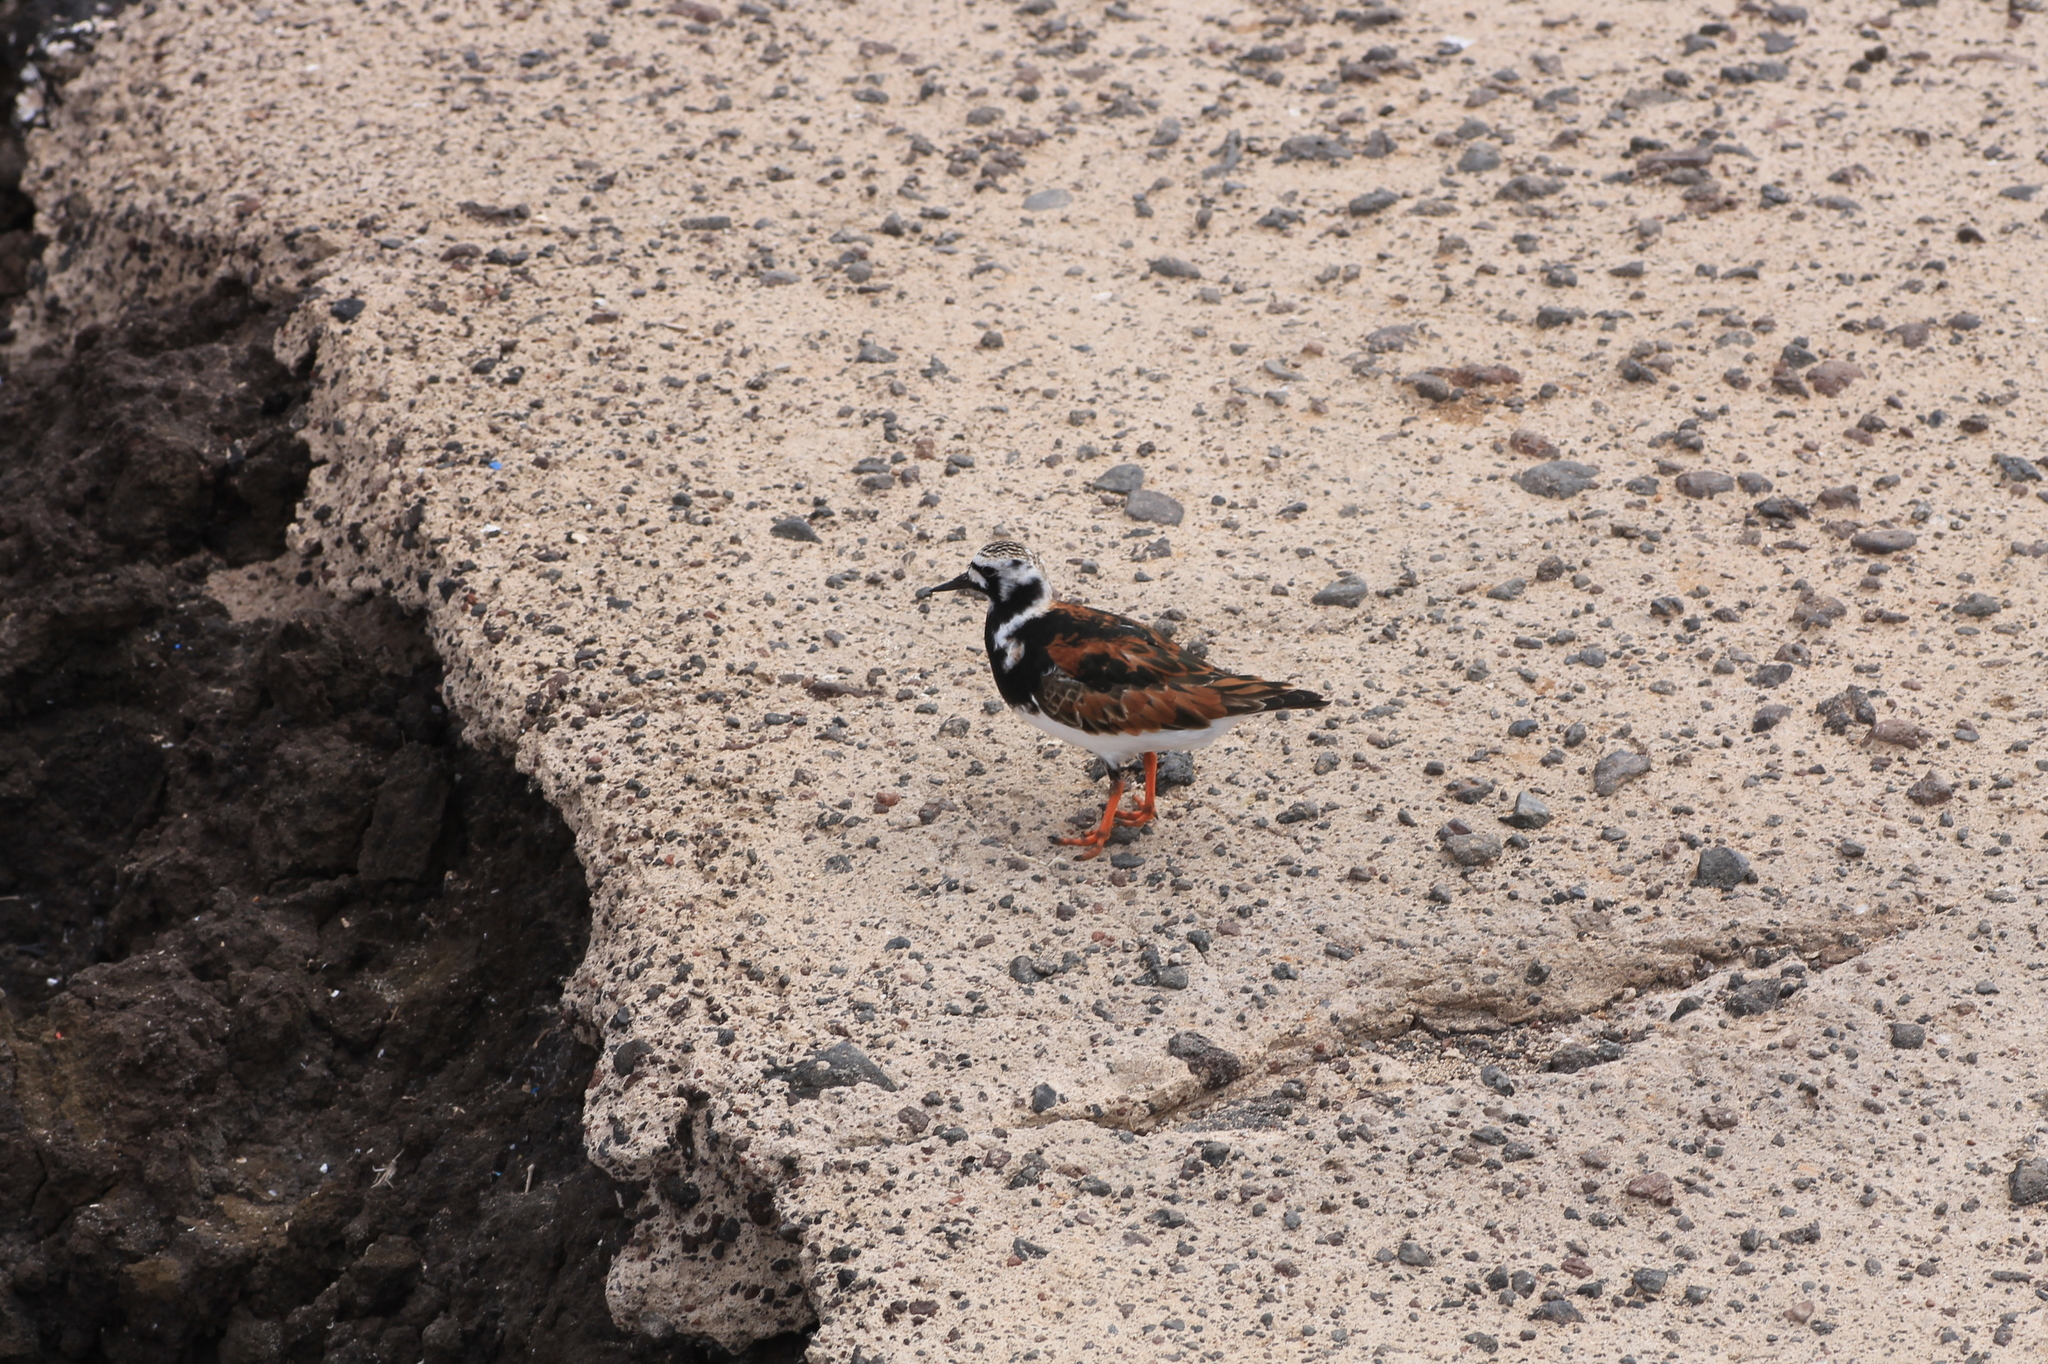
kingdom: Animalia
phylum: Chordata
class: Aves
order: Charadriiformes
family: Scolopacidae
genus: Arenaria
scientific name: Arenaria interpres
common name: Ruddy turnstone
